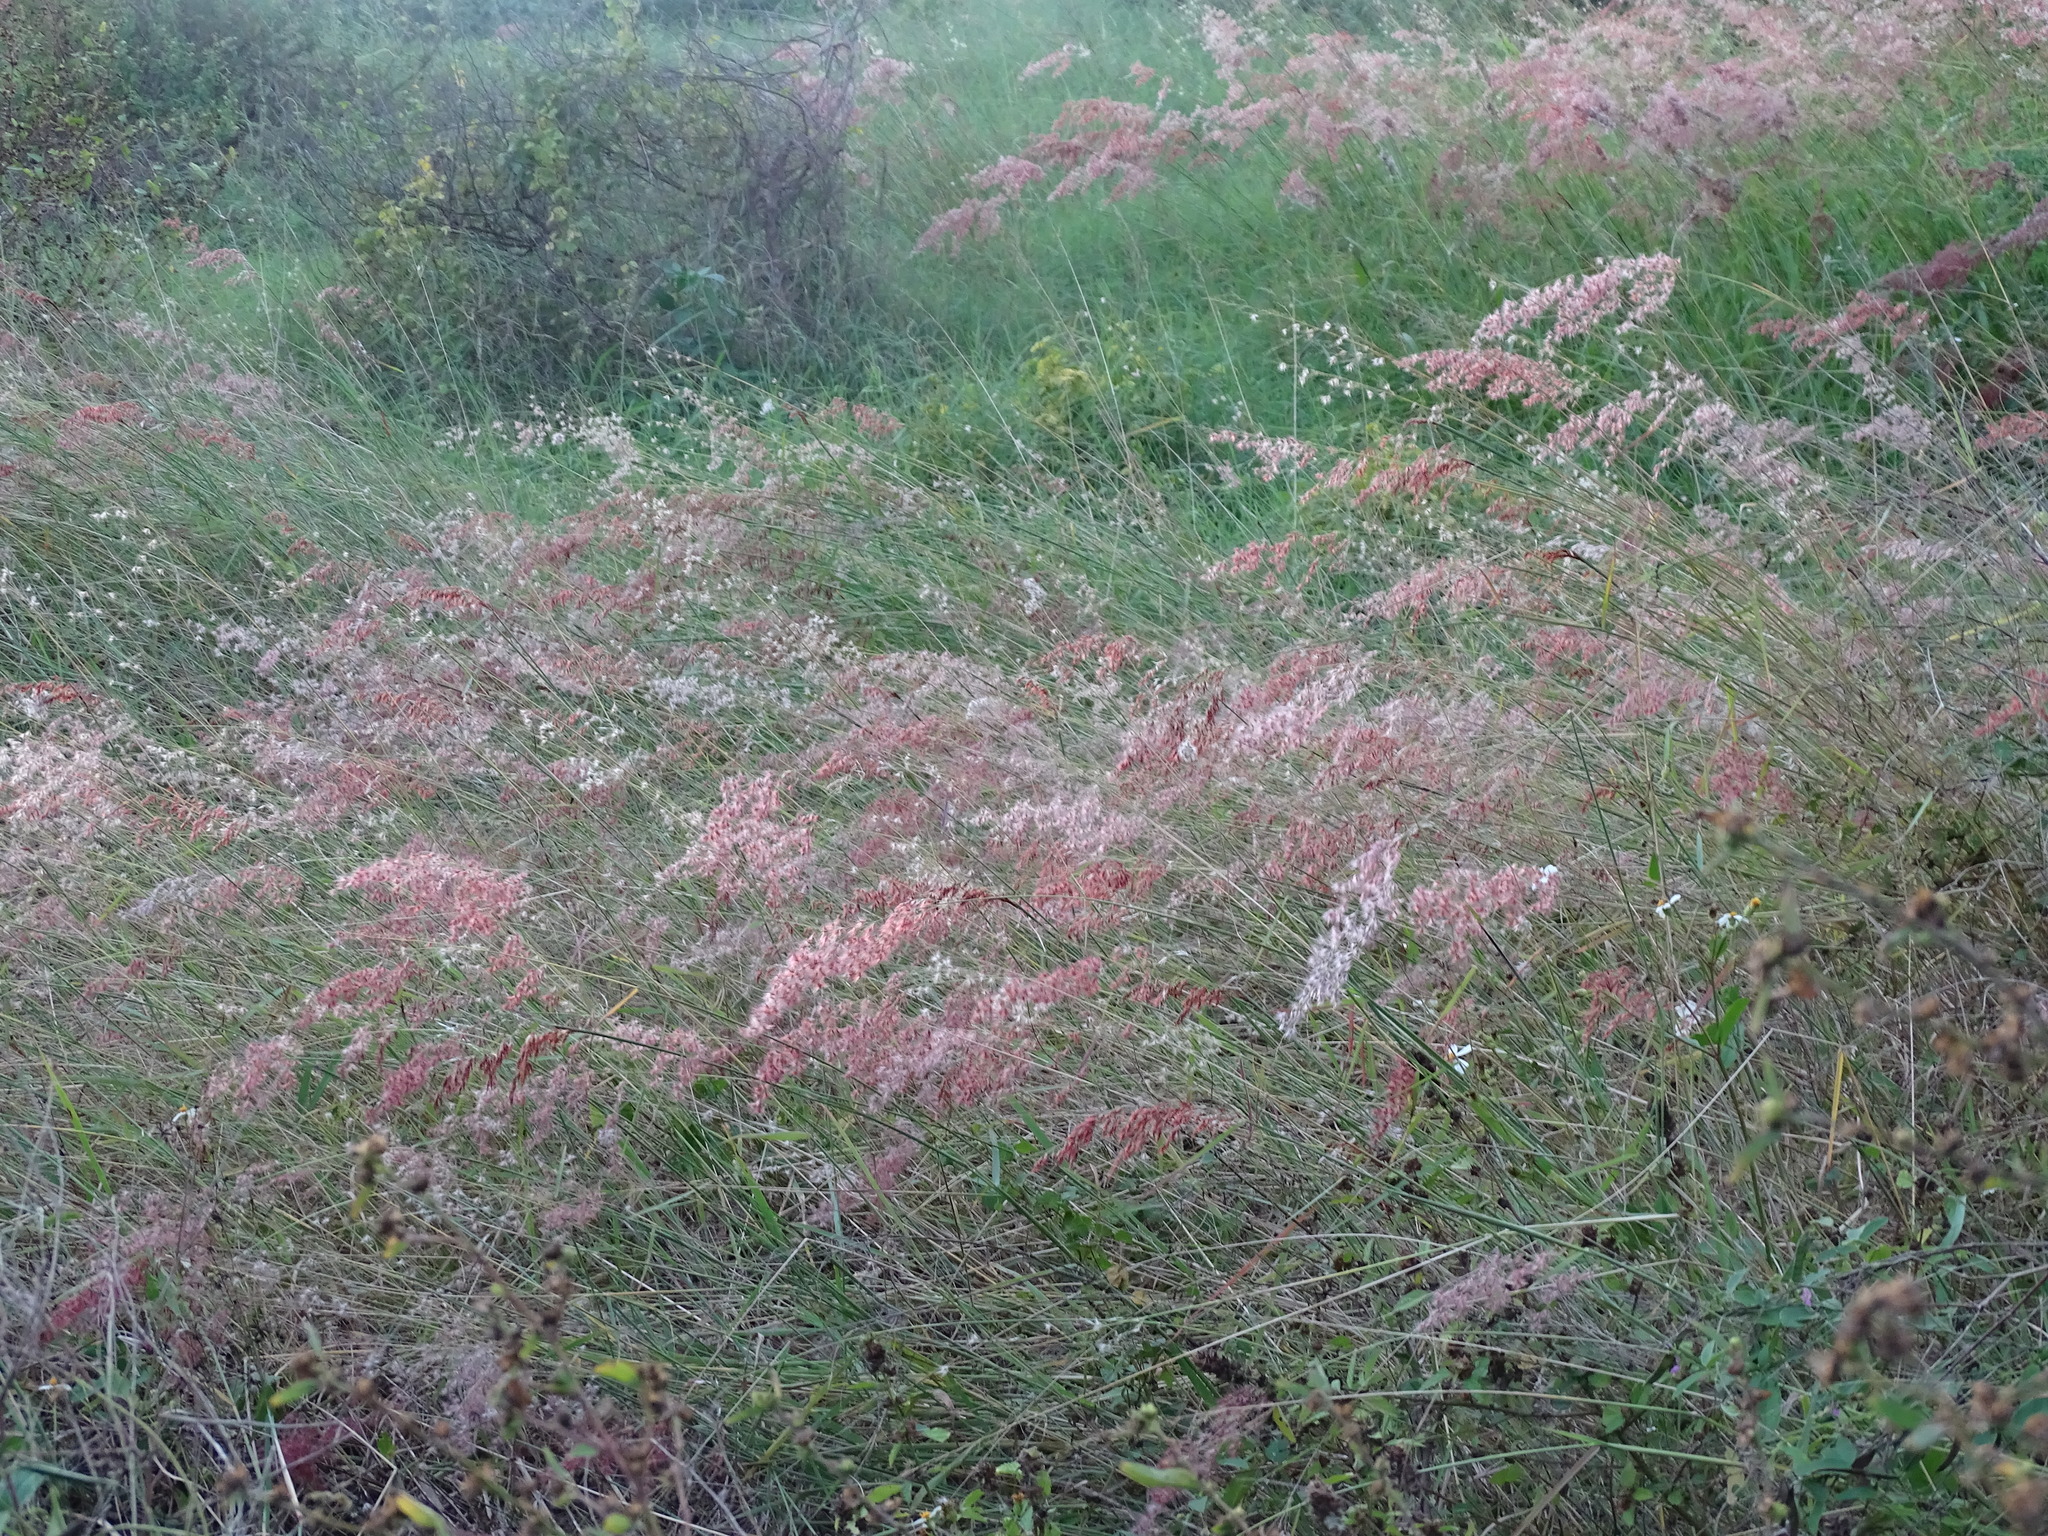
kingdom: Plantae
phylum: Tracheophyta
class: Liliopsida
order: Poales
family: Poaceae
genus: Melinis
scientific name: Melinis repens
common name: Rose natal grass
